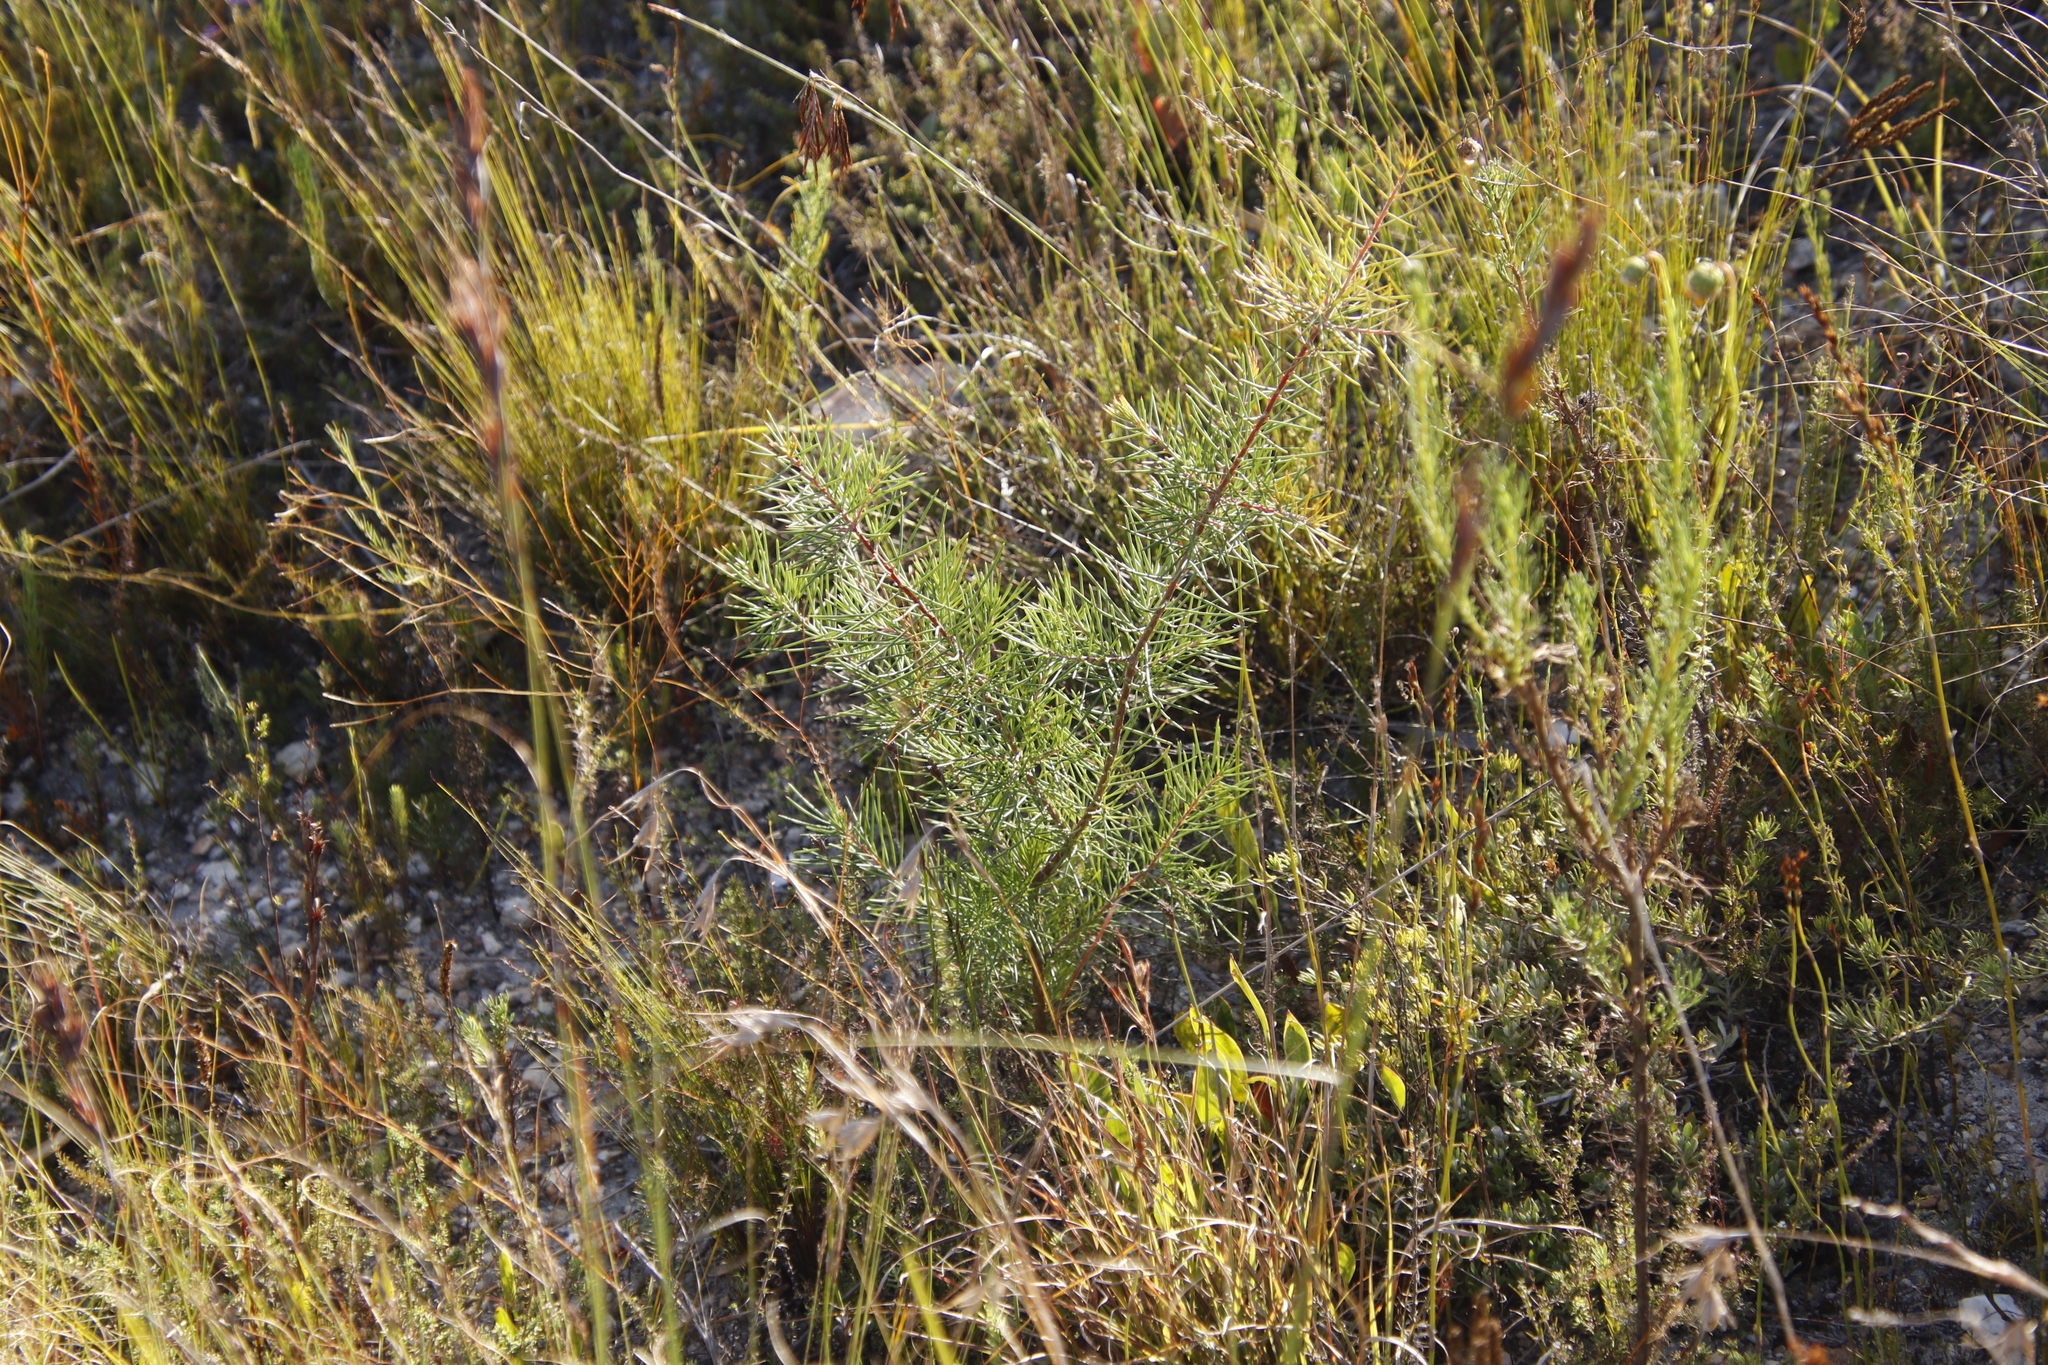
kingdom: Plantae
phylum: Tracheophyta
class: Magnoliopsida
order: Proteales
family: Proteaceae
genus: Hakea
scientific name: Hakea sericea
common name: Needle bush
